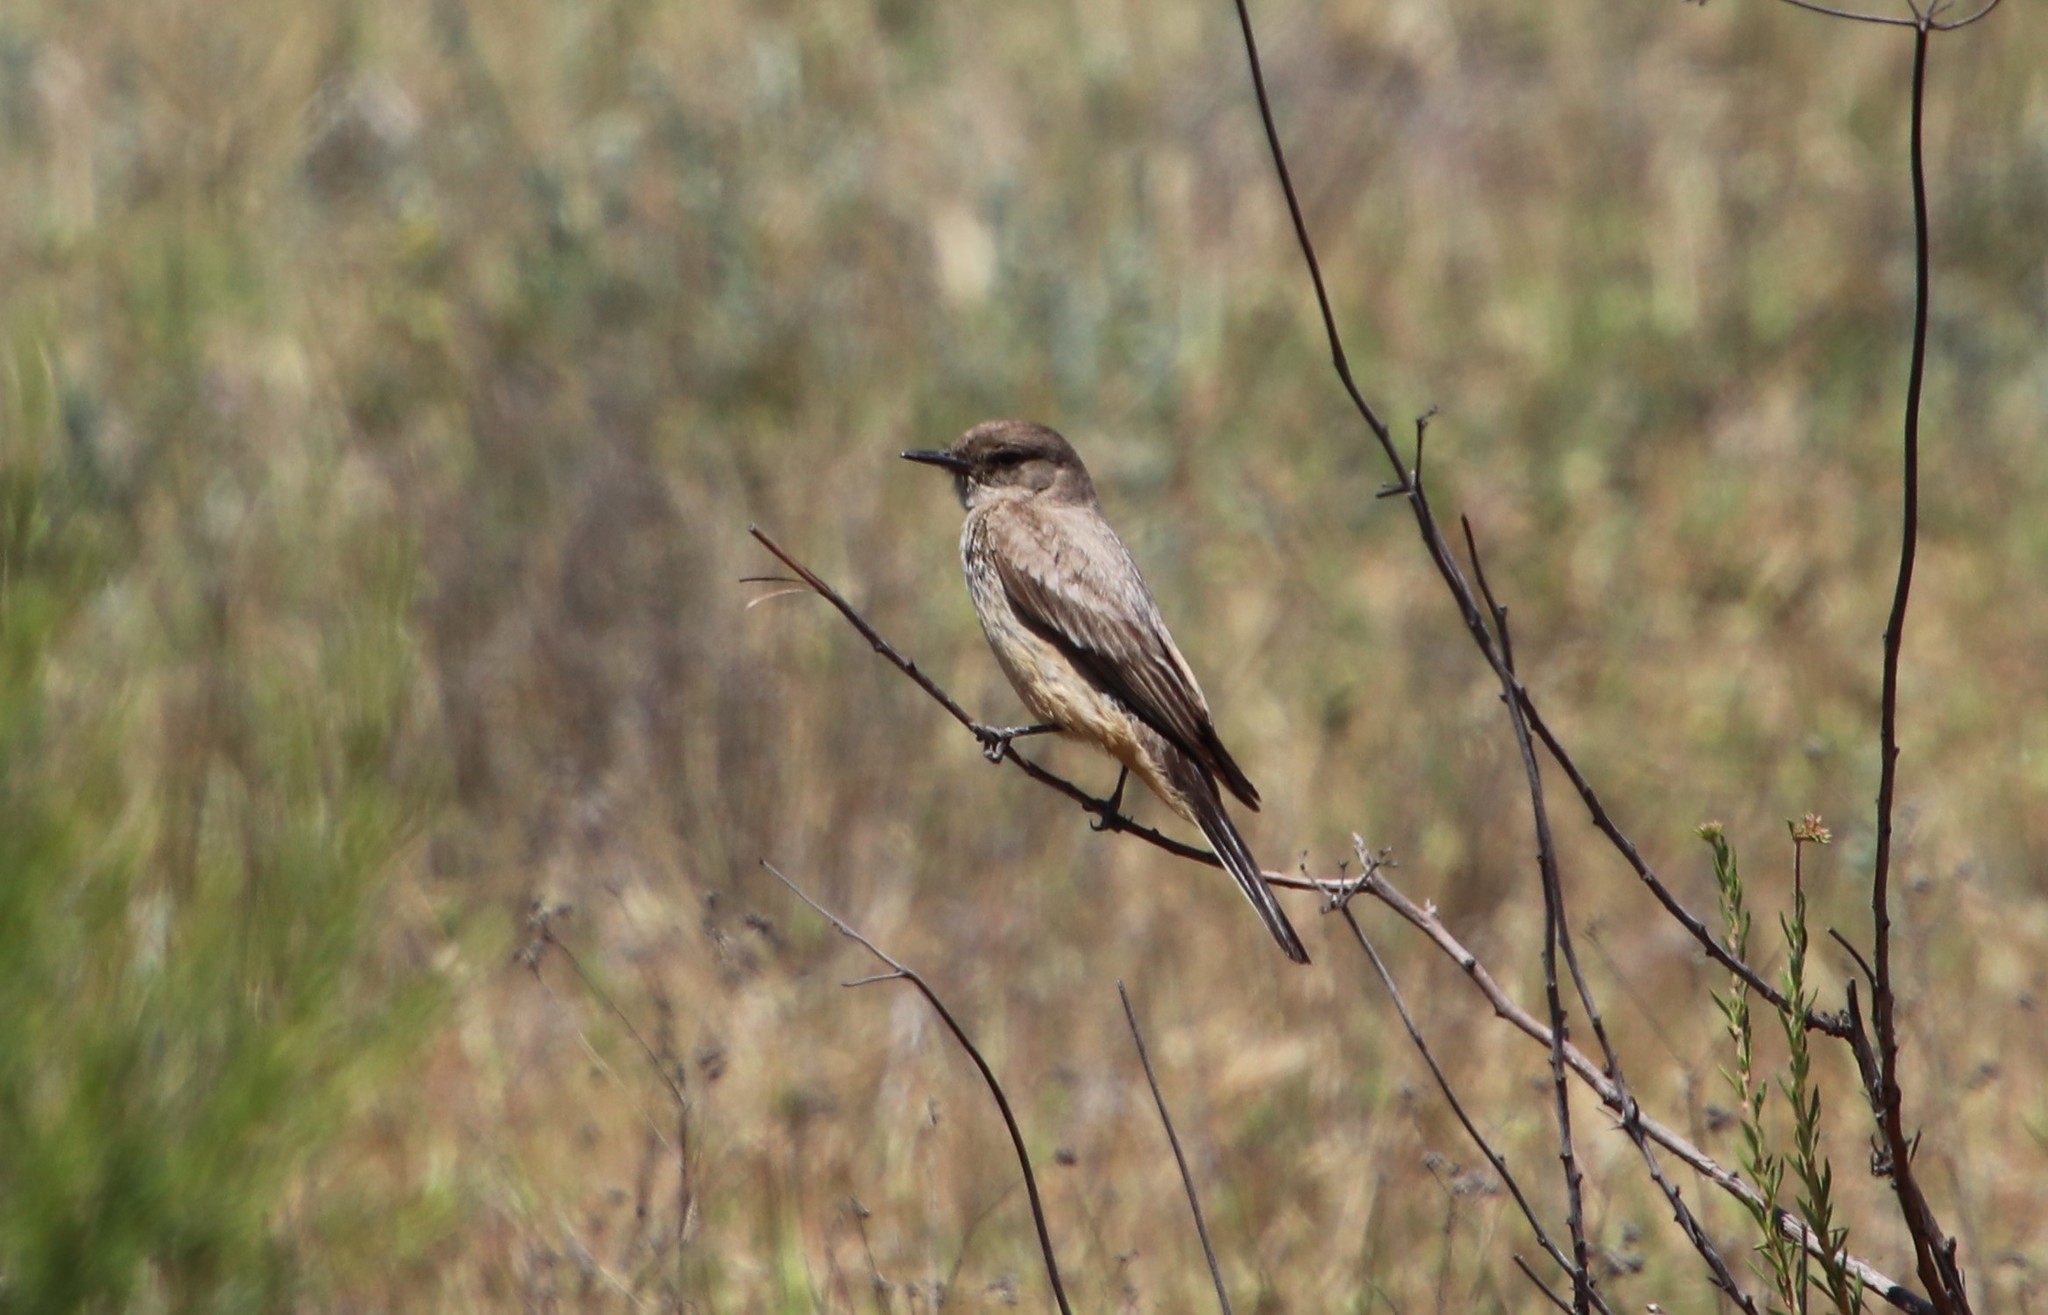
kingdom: Animalia
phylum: Chordata
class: Aves
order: Passeriformes
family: Tyrannidae
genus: Sayornis
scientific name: Sayornis saya
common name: Say's phoebe
